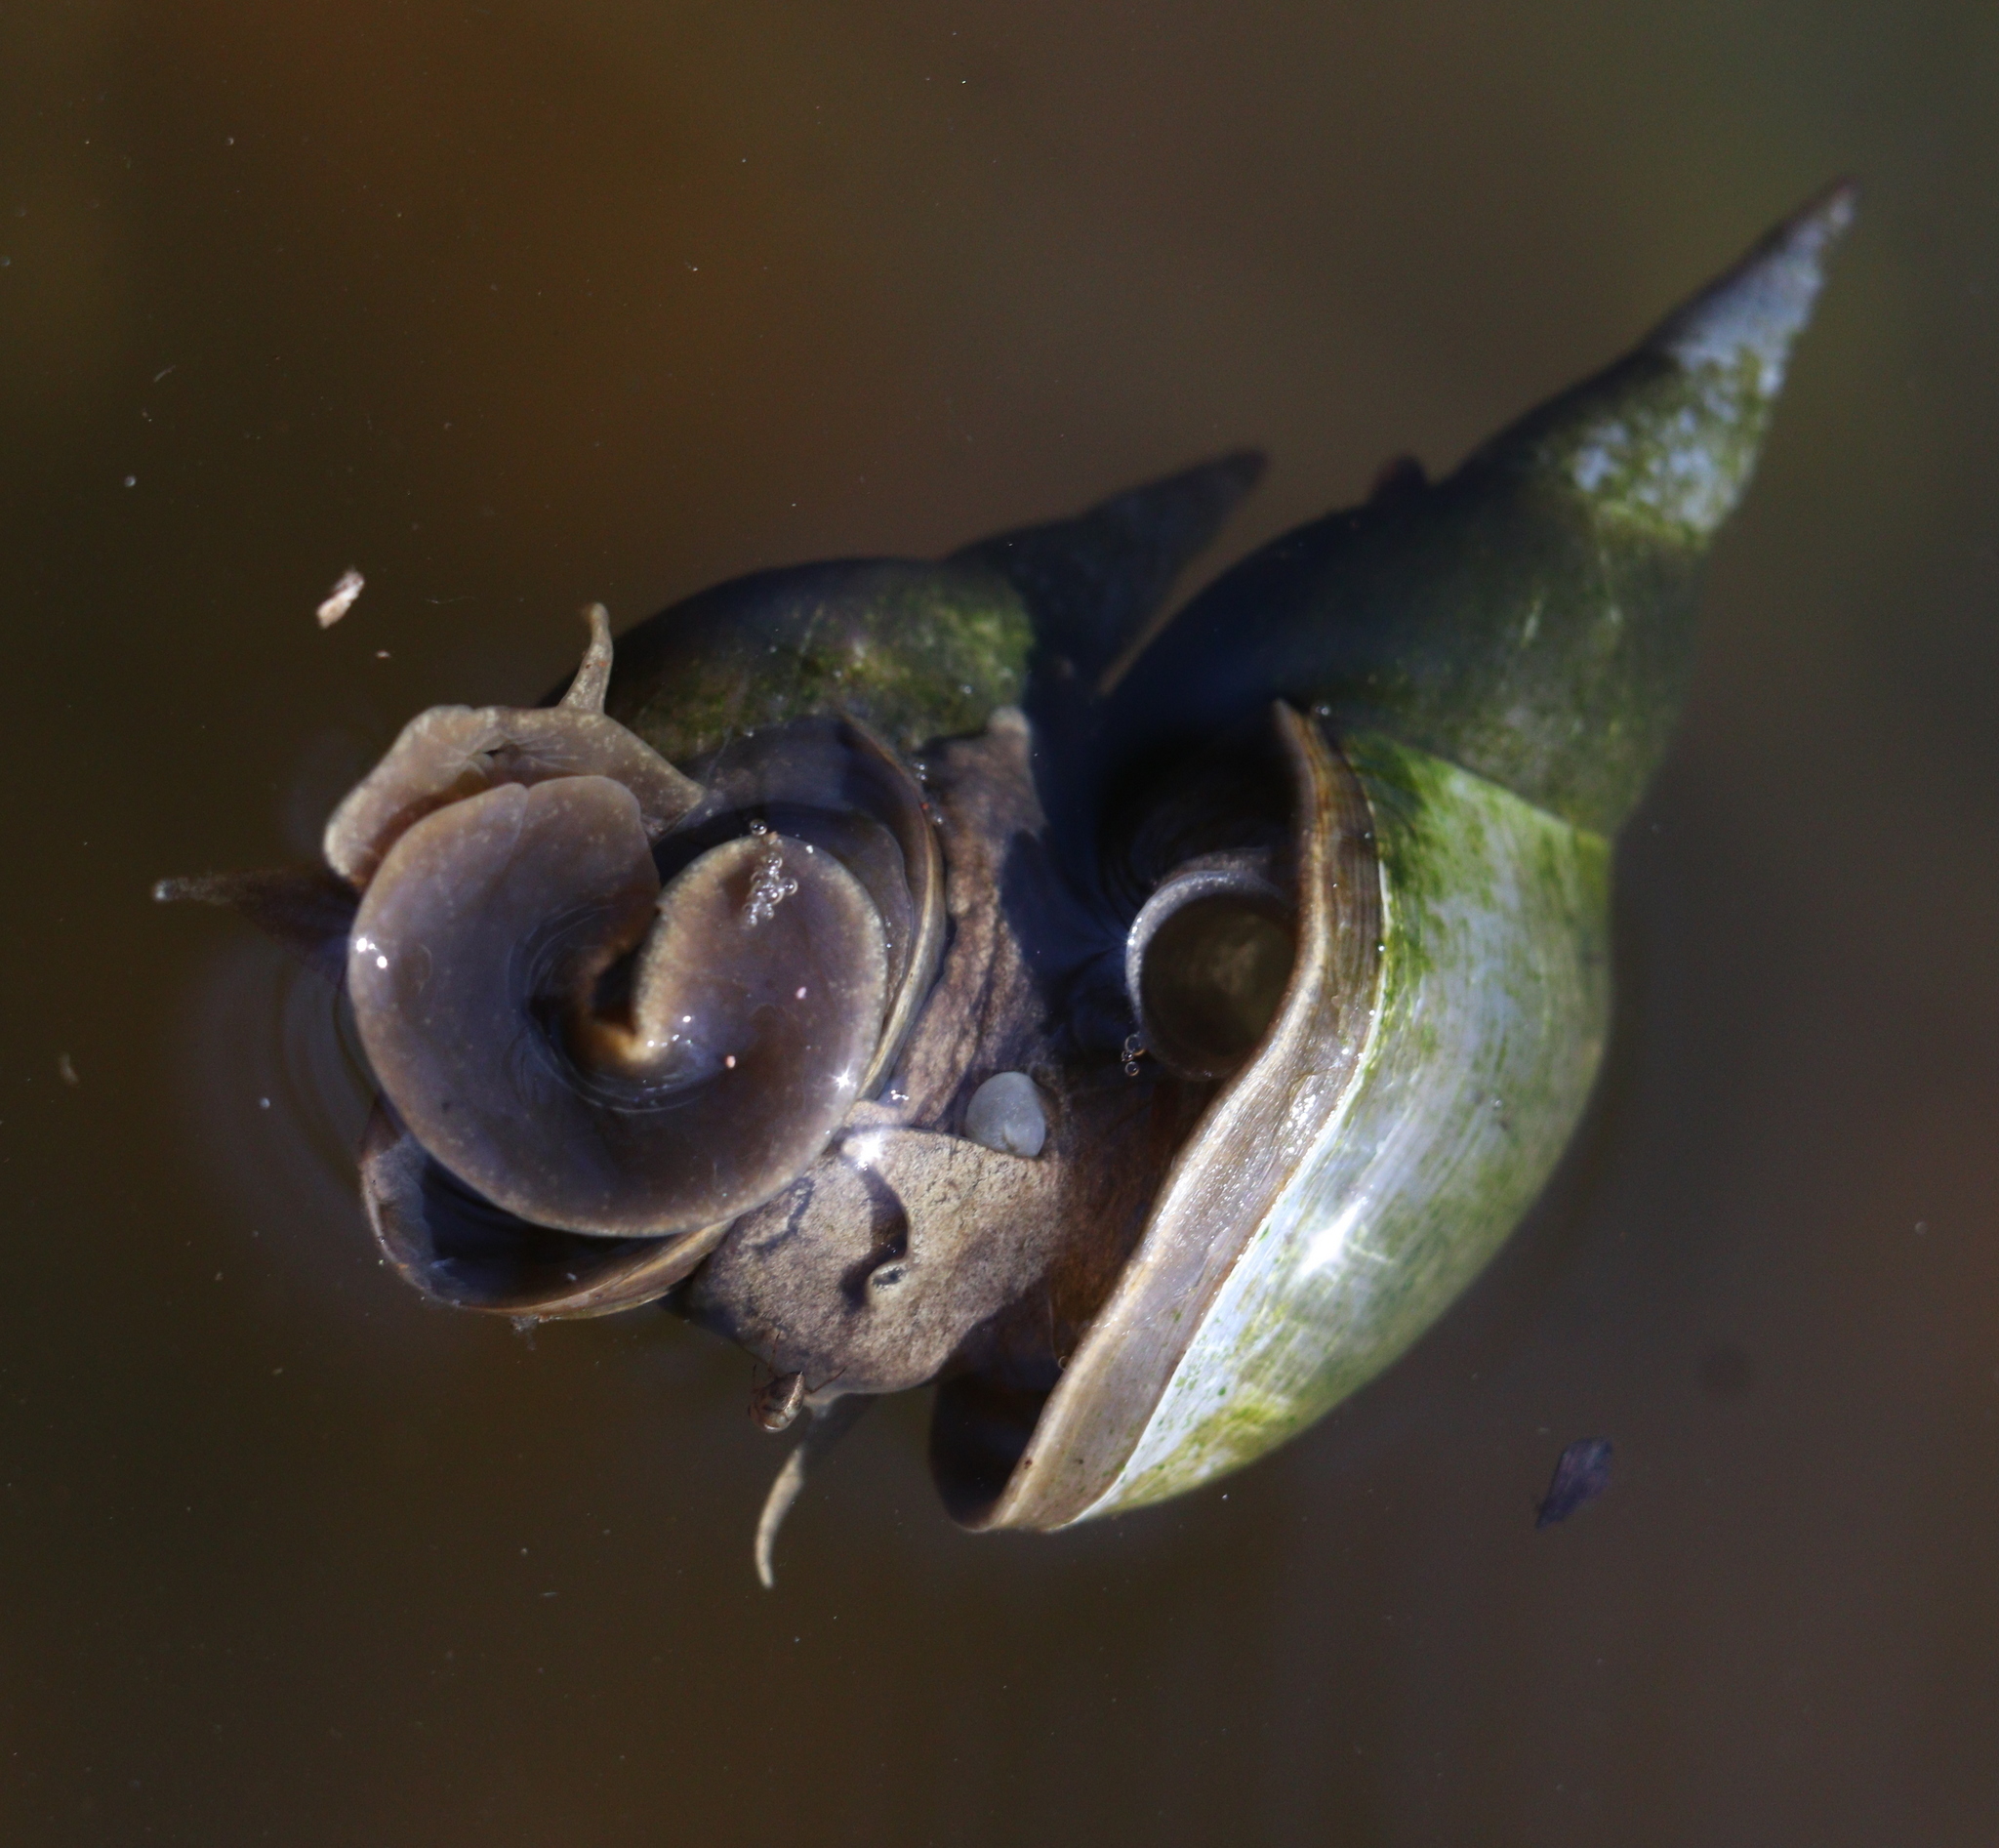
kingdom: Animalia
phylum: Mollusca
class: Gastropoda
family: Lymnaeidae
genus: Lymnaea
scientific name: Lymnaea stagnalis
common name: Great pond snail
